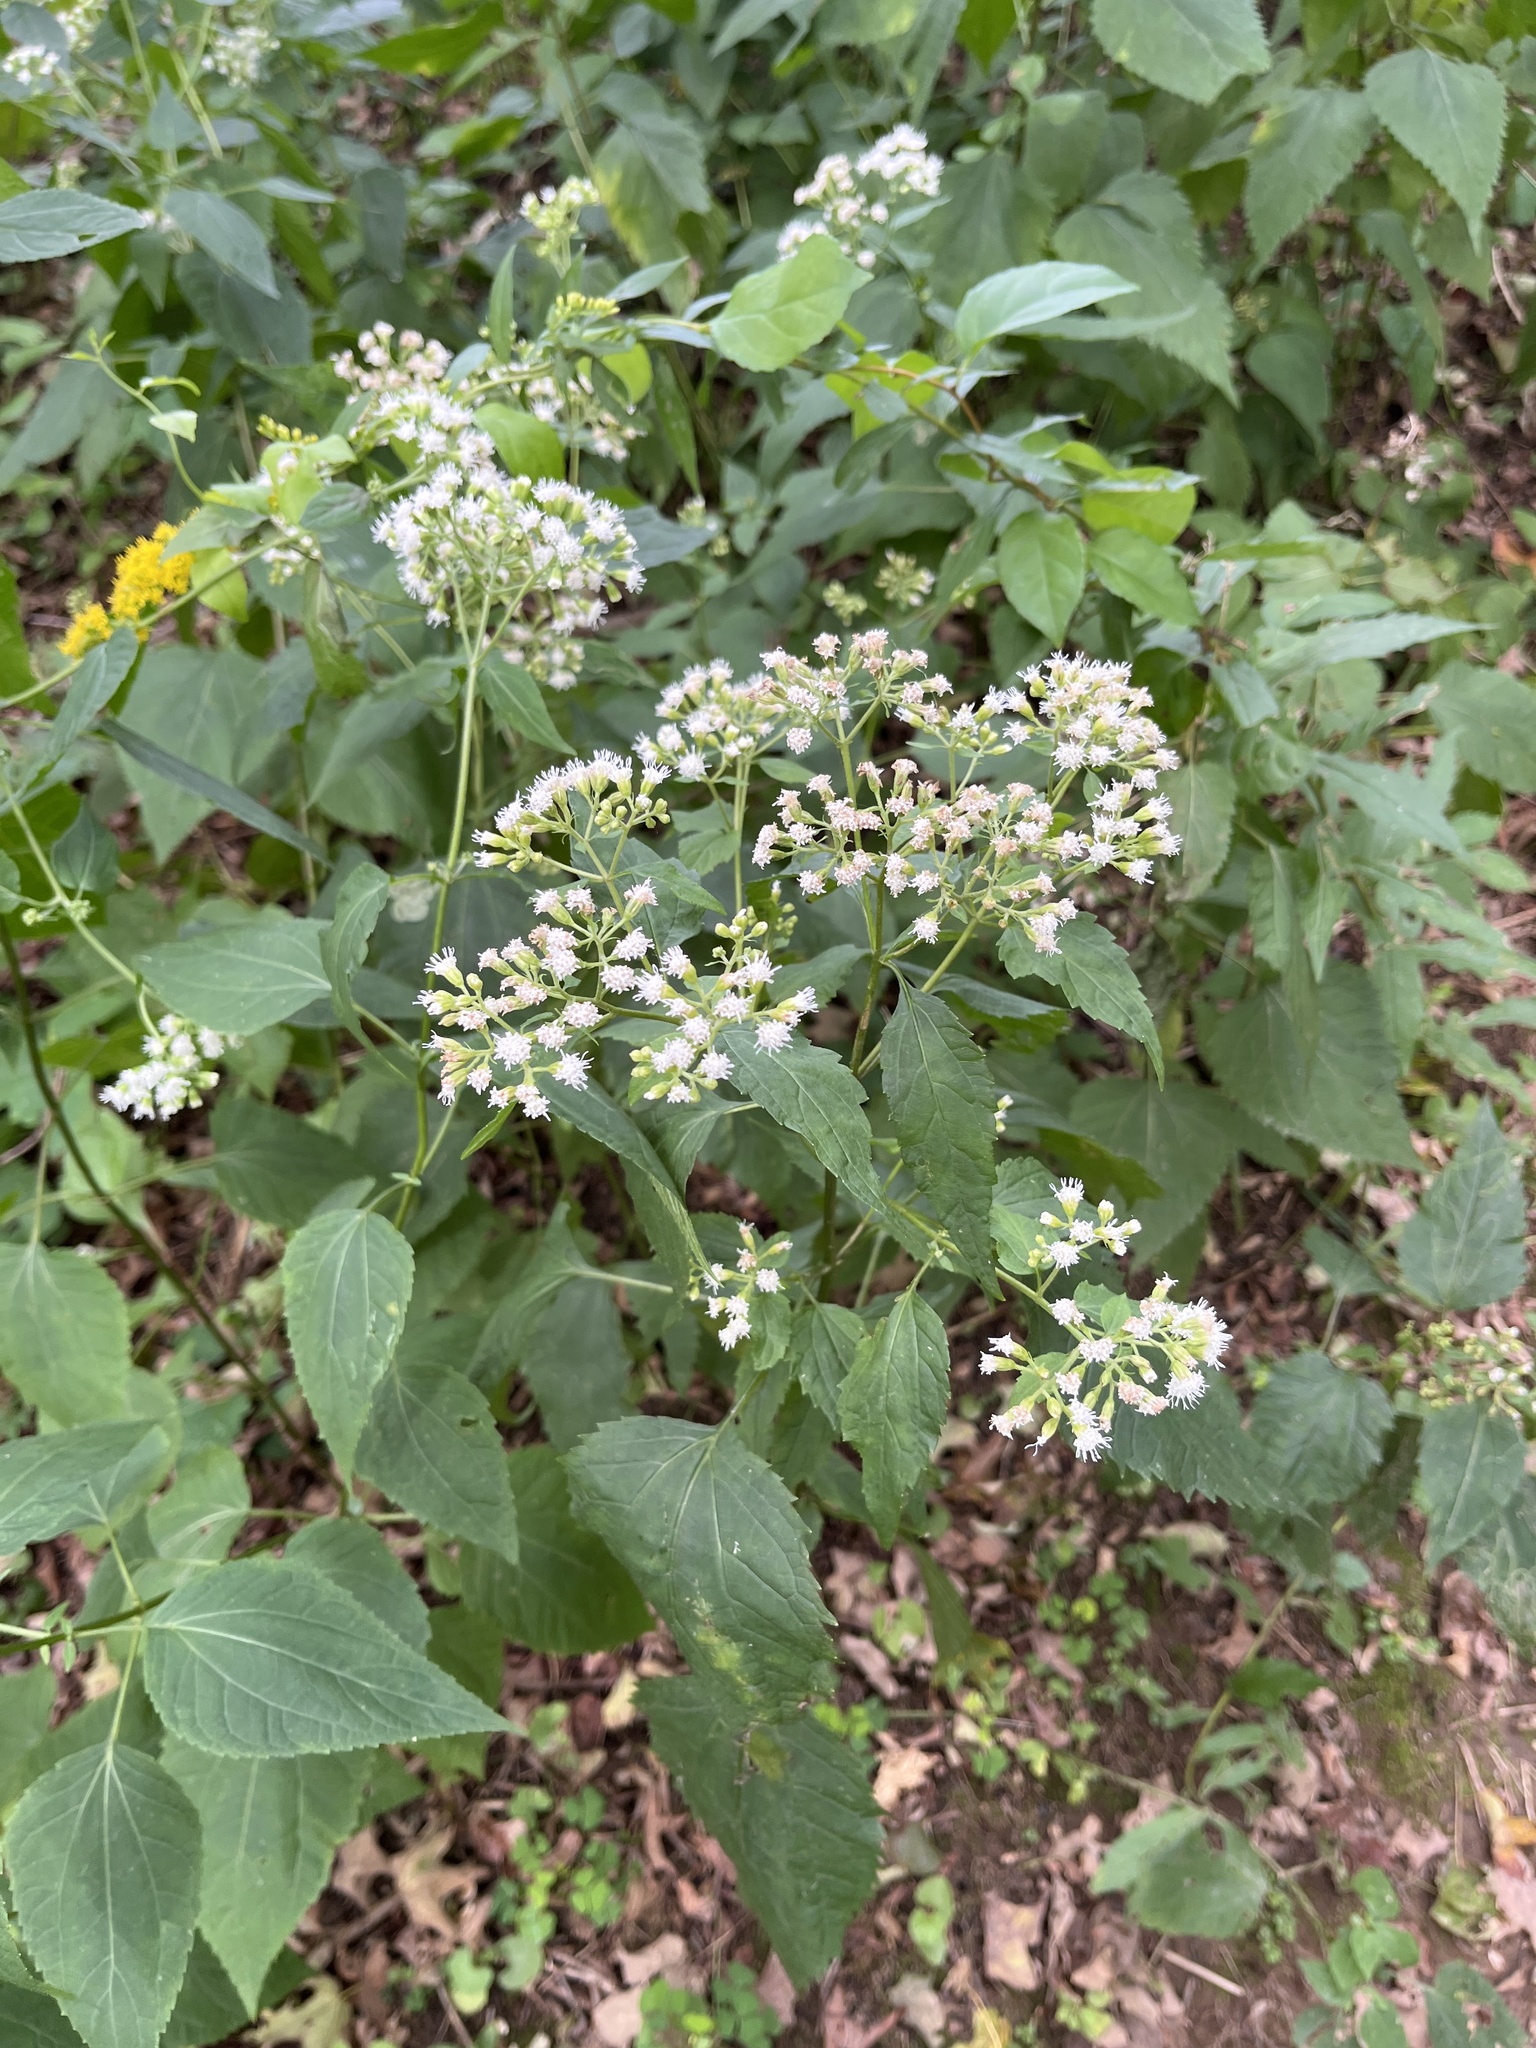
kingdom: Plantae
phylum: Tracheophyta
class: Magnoliopsida
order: Asterales
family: Asteraceae
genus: Ageratina
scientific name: Ageratina altissima
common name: White snakeroot
